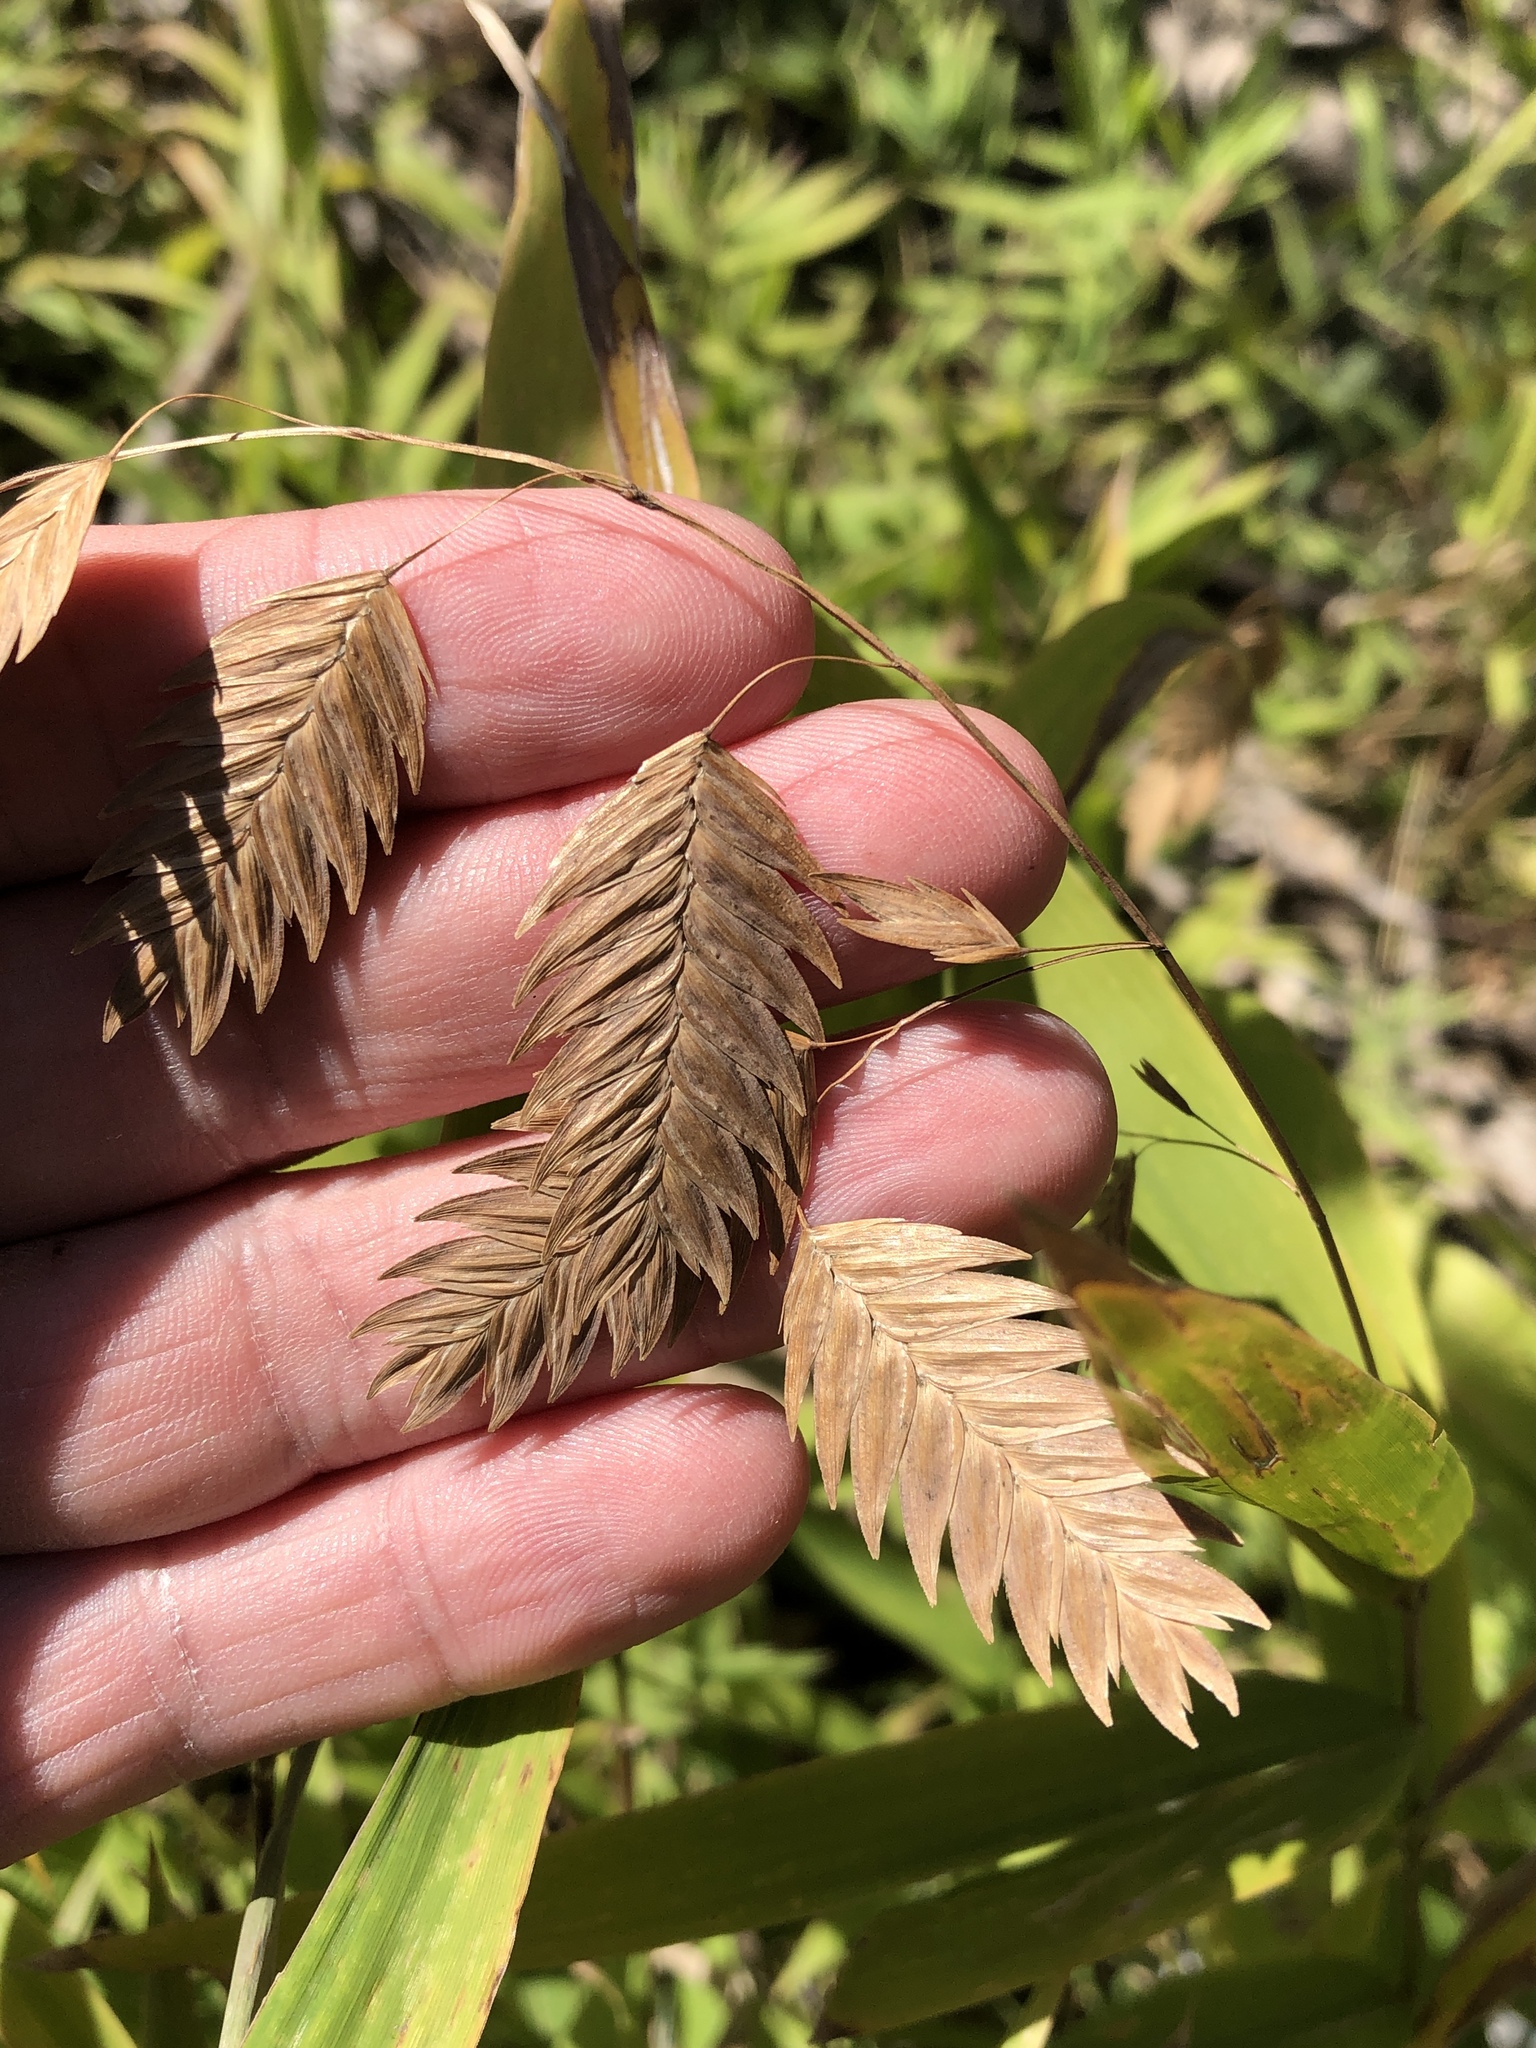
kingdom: Plantae
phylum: Tracheophyta
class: Liliopsida
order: Poales
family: Poaceae
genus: Chasmanthium
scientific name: Chasmanthium latifolium
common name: Broad-leaved chasmanthium
